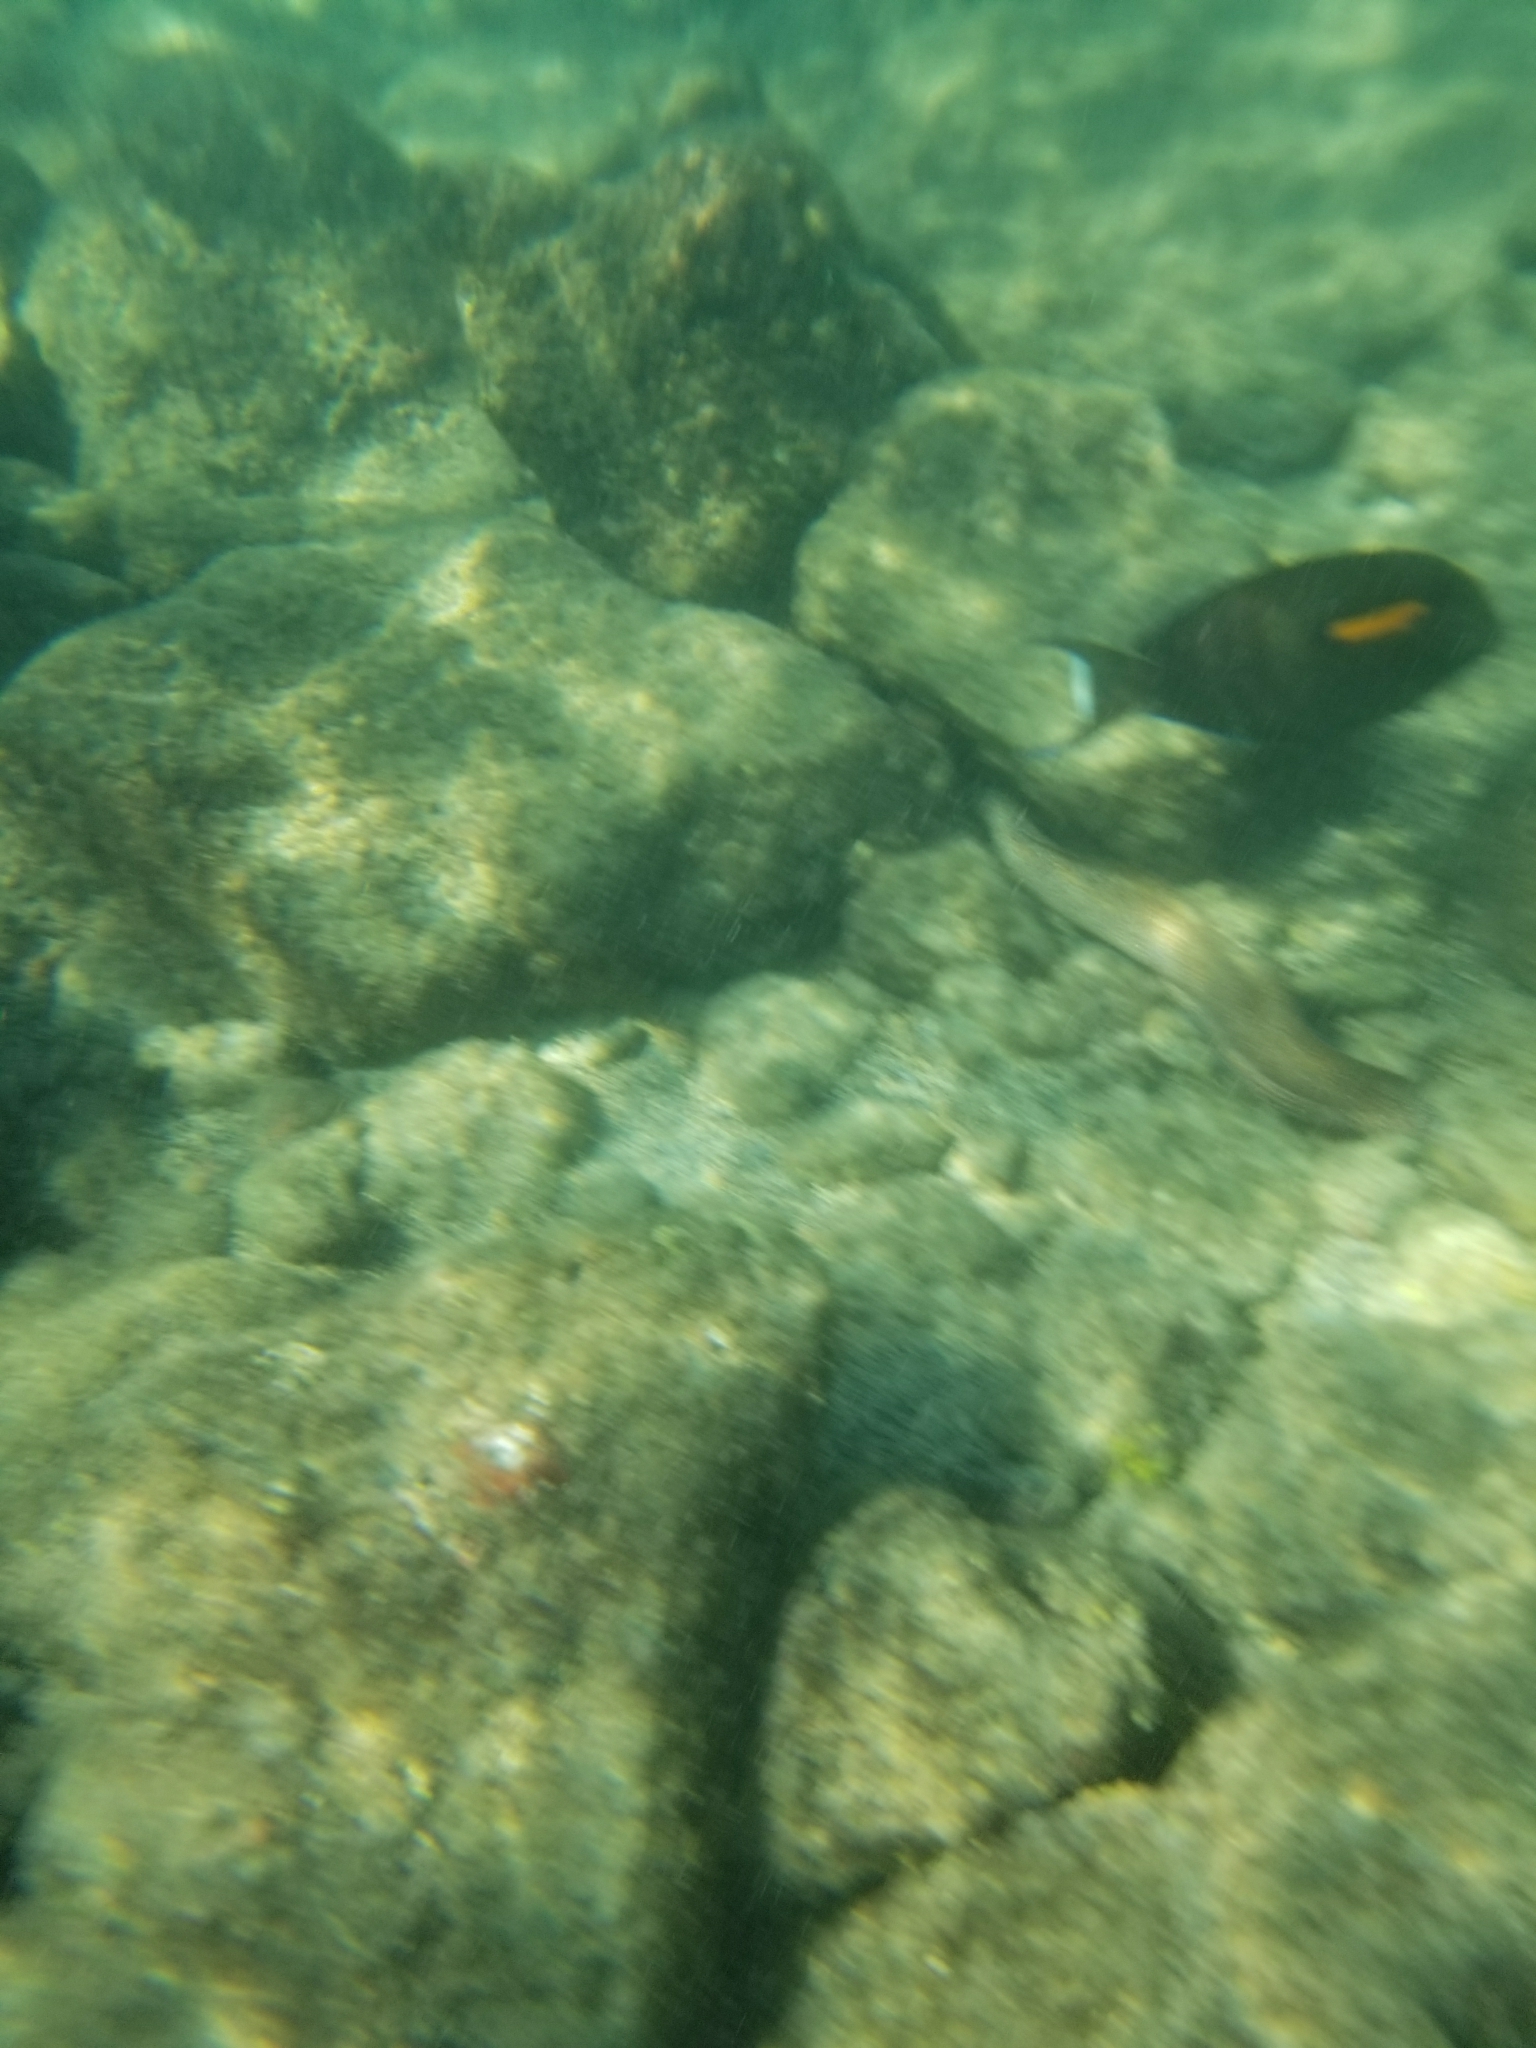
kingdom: Animalia
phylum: Chordata
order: Perciformes
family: Acanthuridae
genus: Acanthurus
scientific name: Acanthurus olivaceus
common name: Gendarme fish
